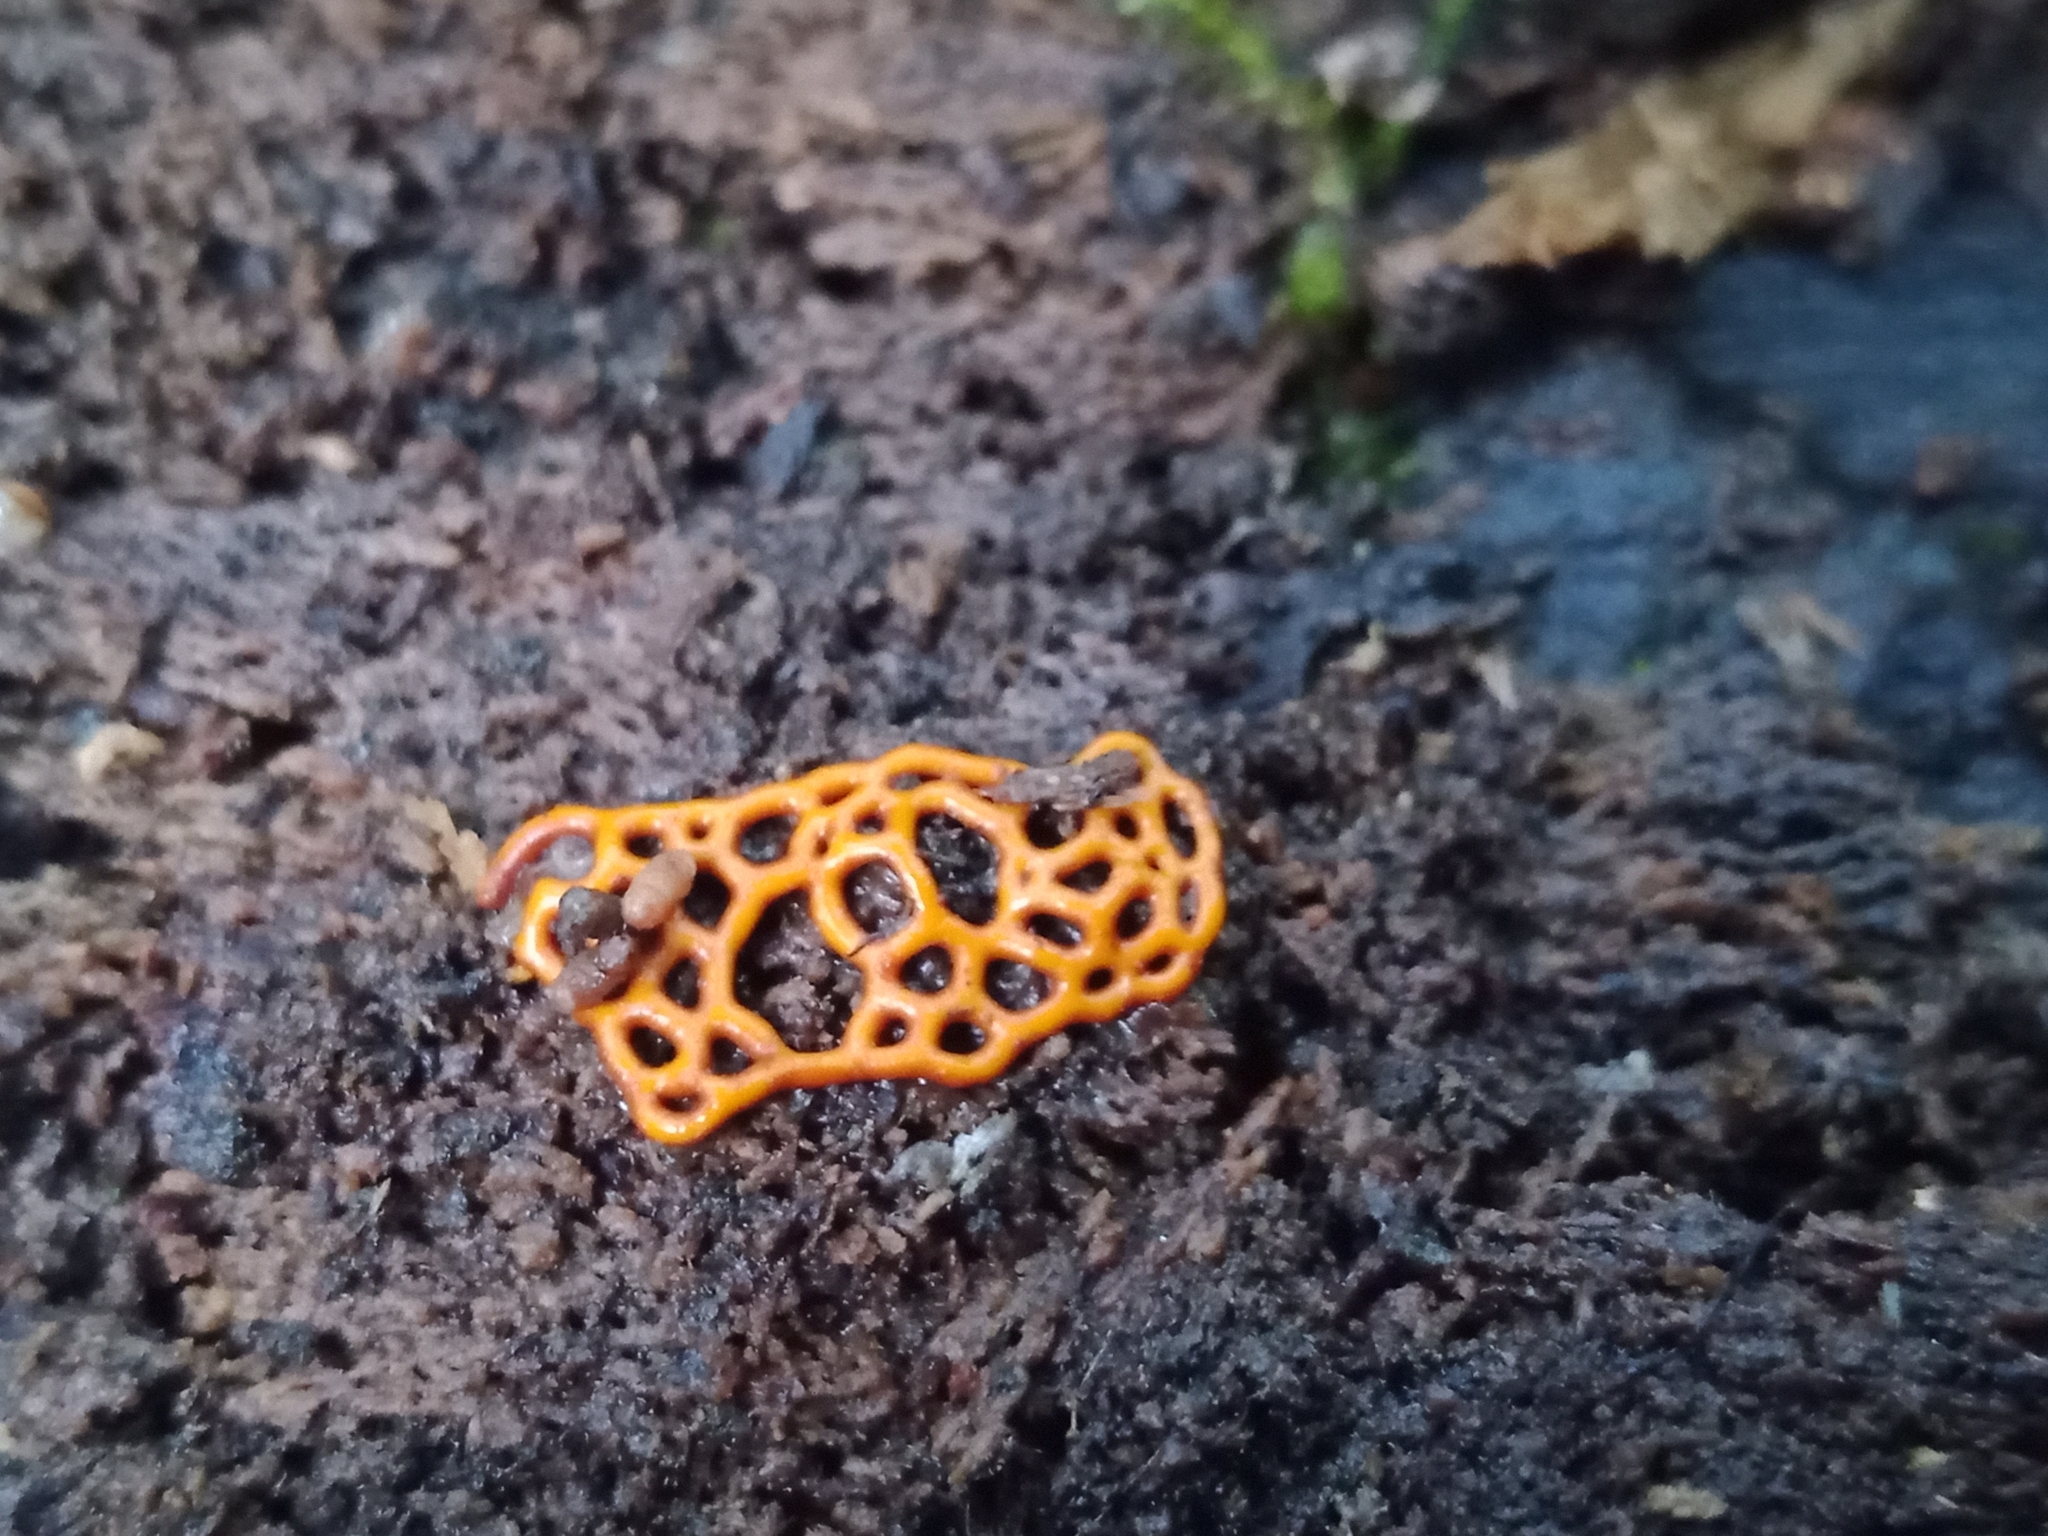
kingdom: Protozoa
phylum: Mycetozoa
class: Myxomycetes
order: Trichiales
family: Arcyriaceae
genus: Hemitrichia
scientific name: Hemitrichia serpula
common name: Pretzel slime mold
